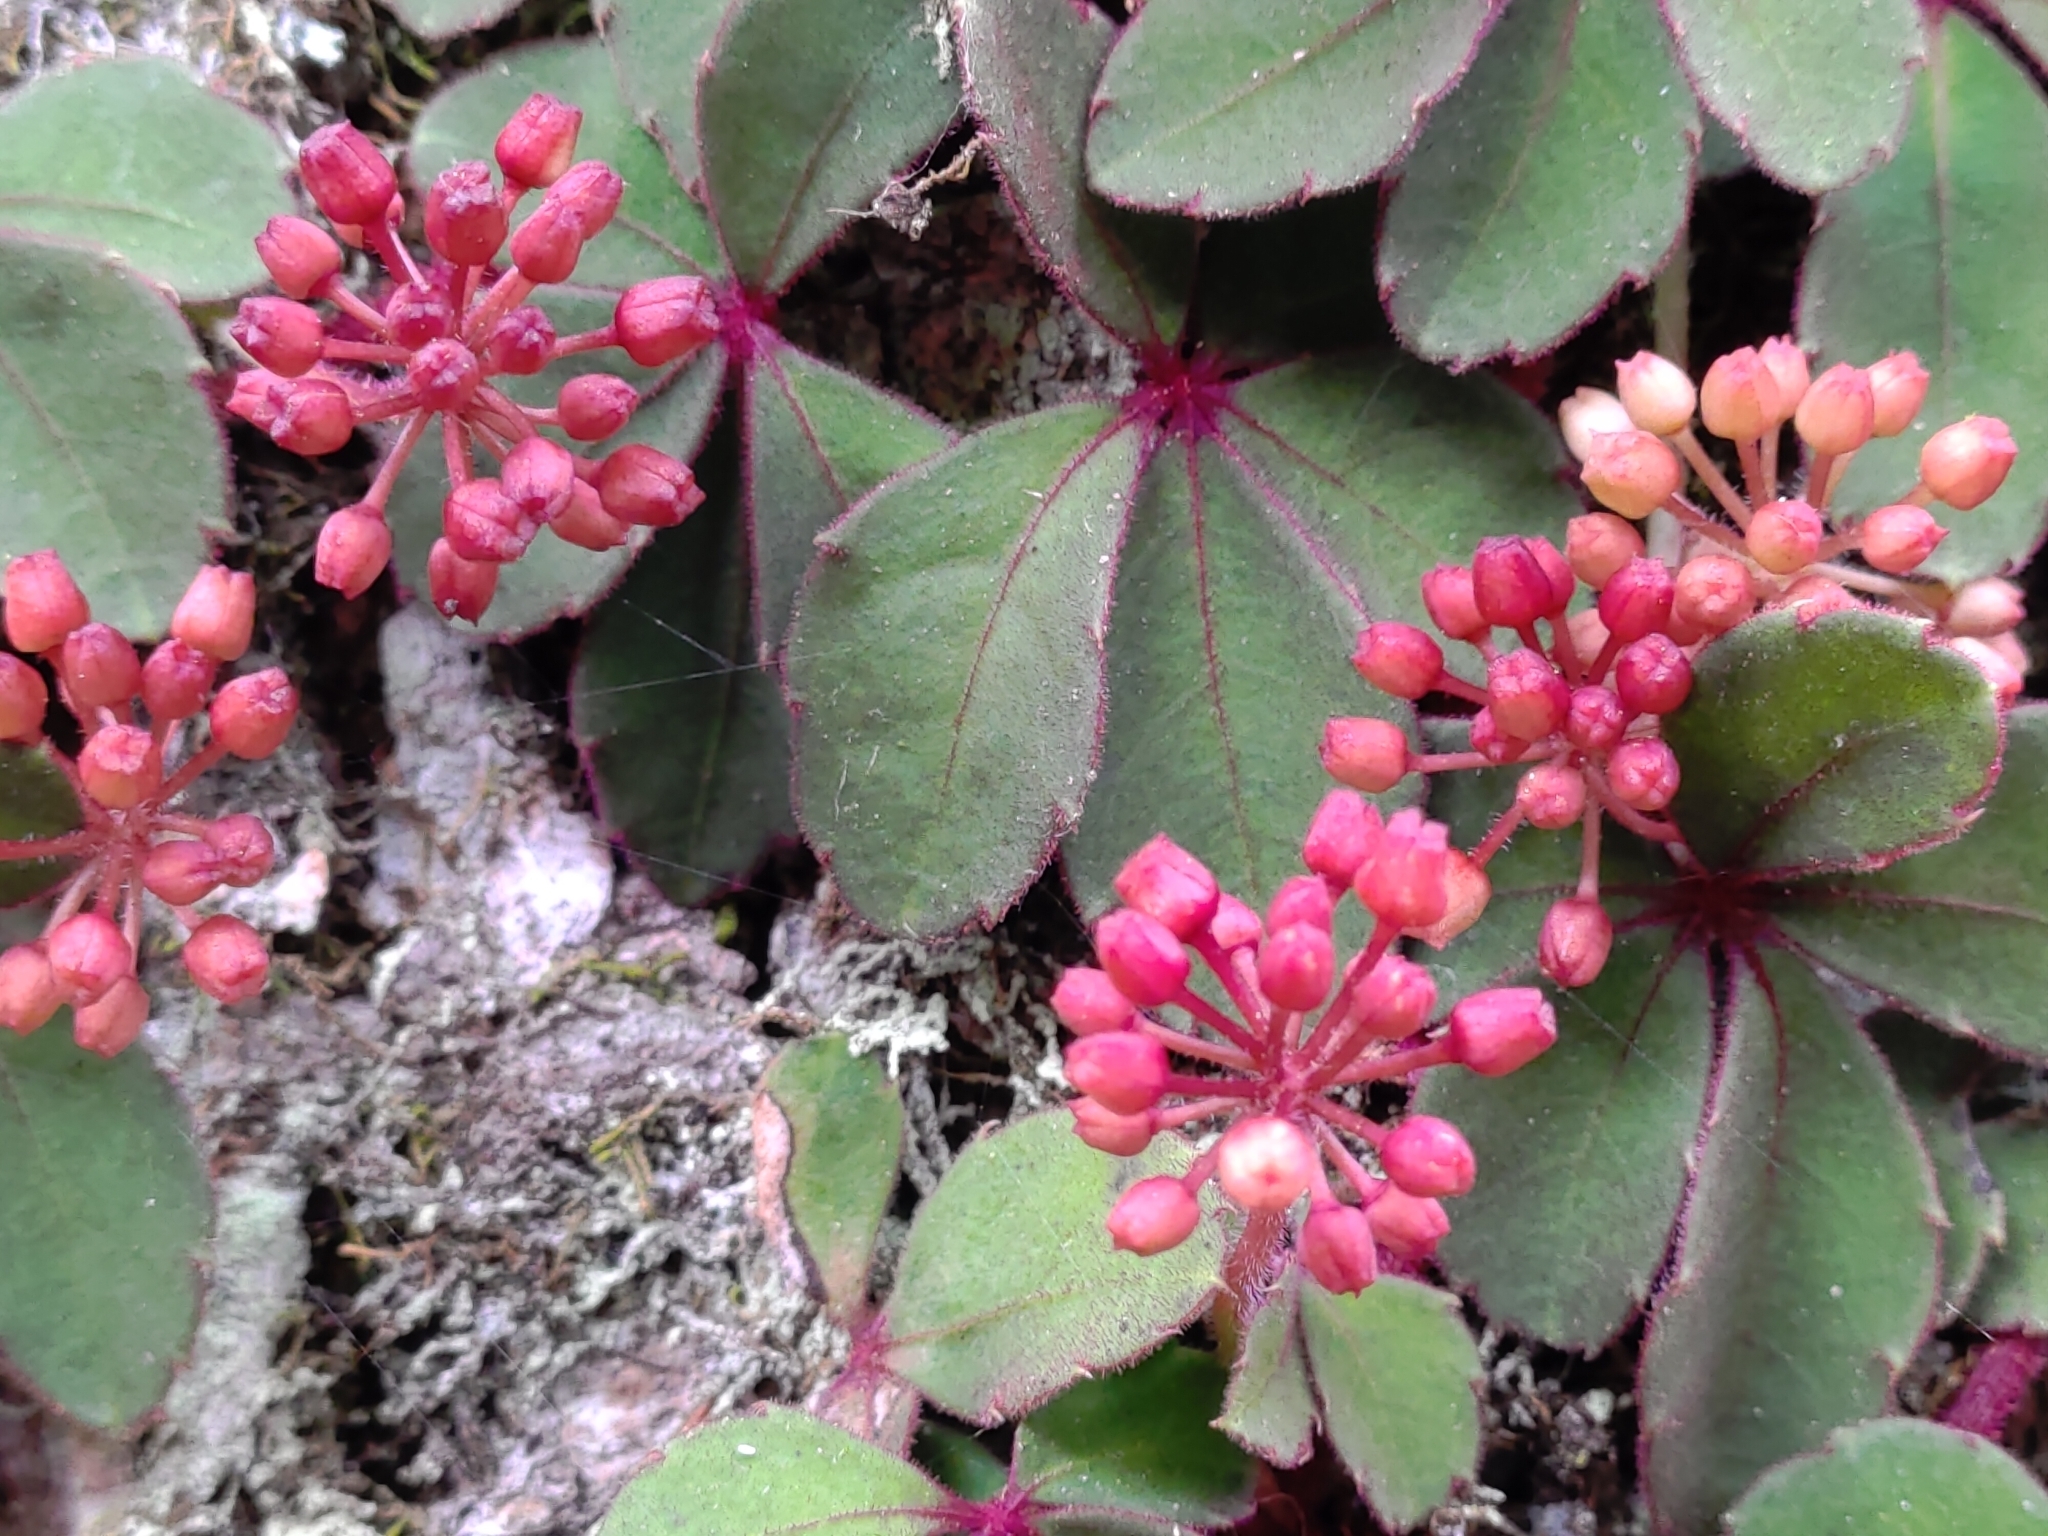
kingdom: Plantae
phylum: Tracheophyta
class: Magnoliopsida
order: Vitales
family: Vitaceae
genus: Tetrastigma
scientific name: Tetrastigma obtectum
